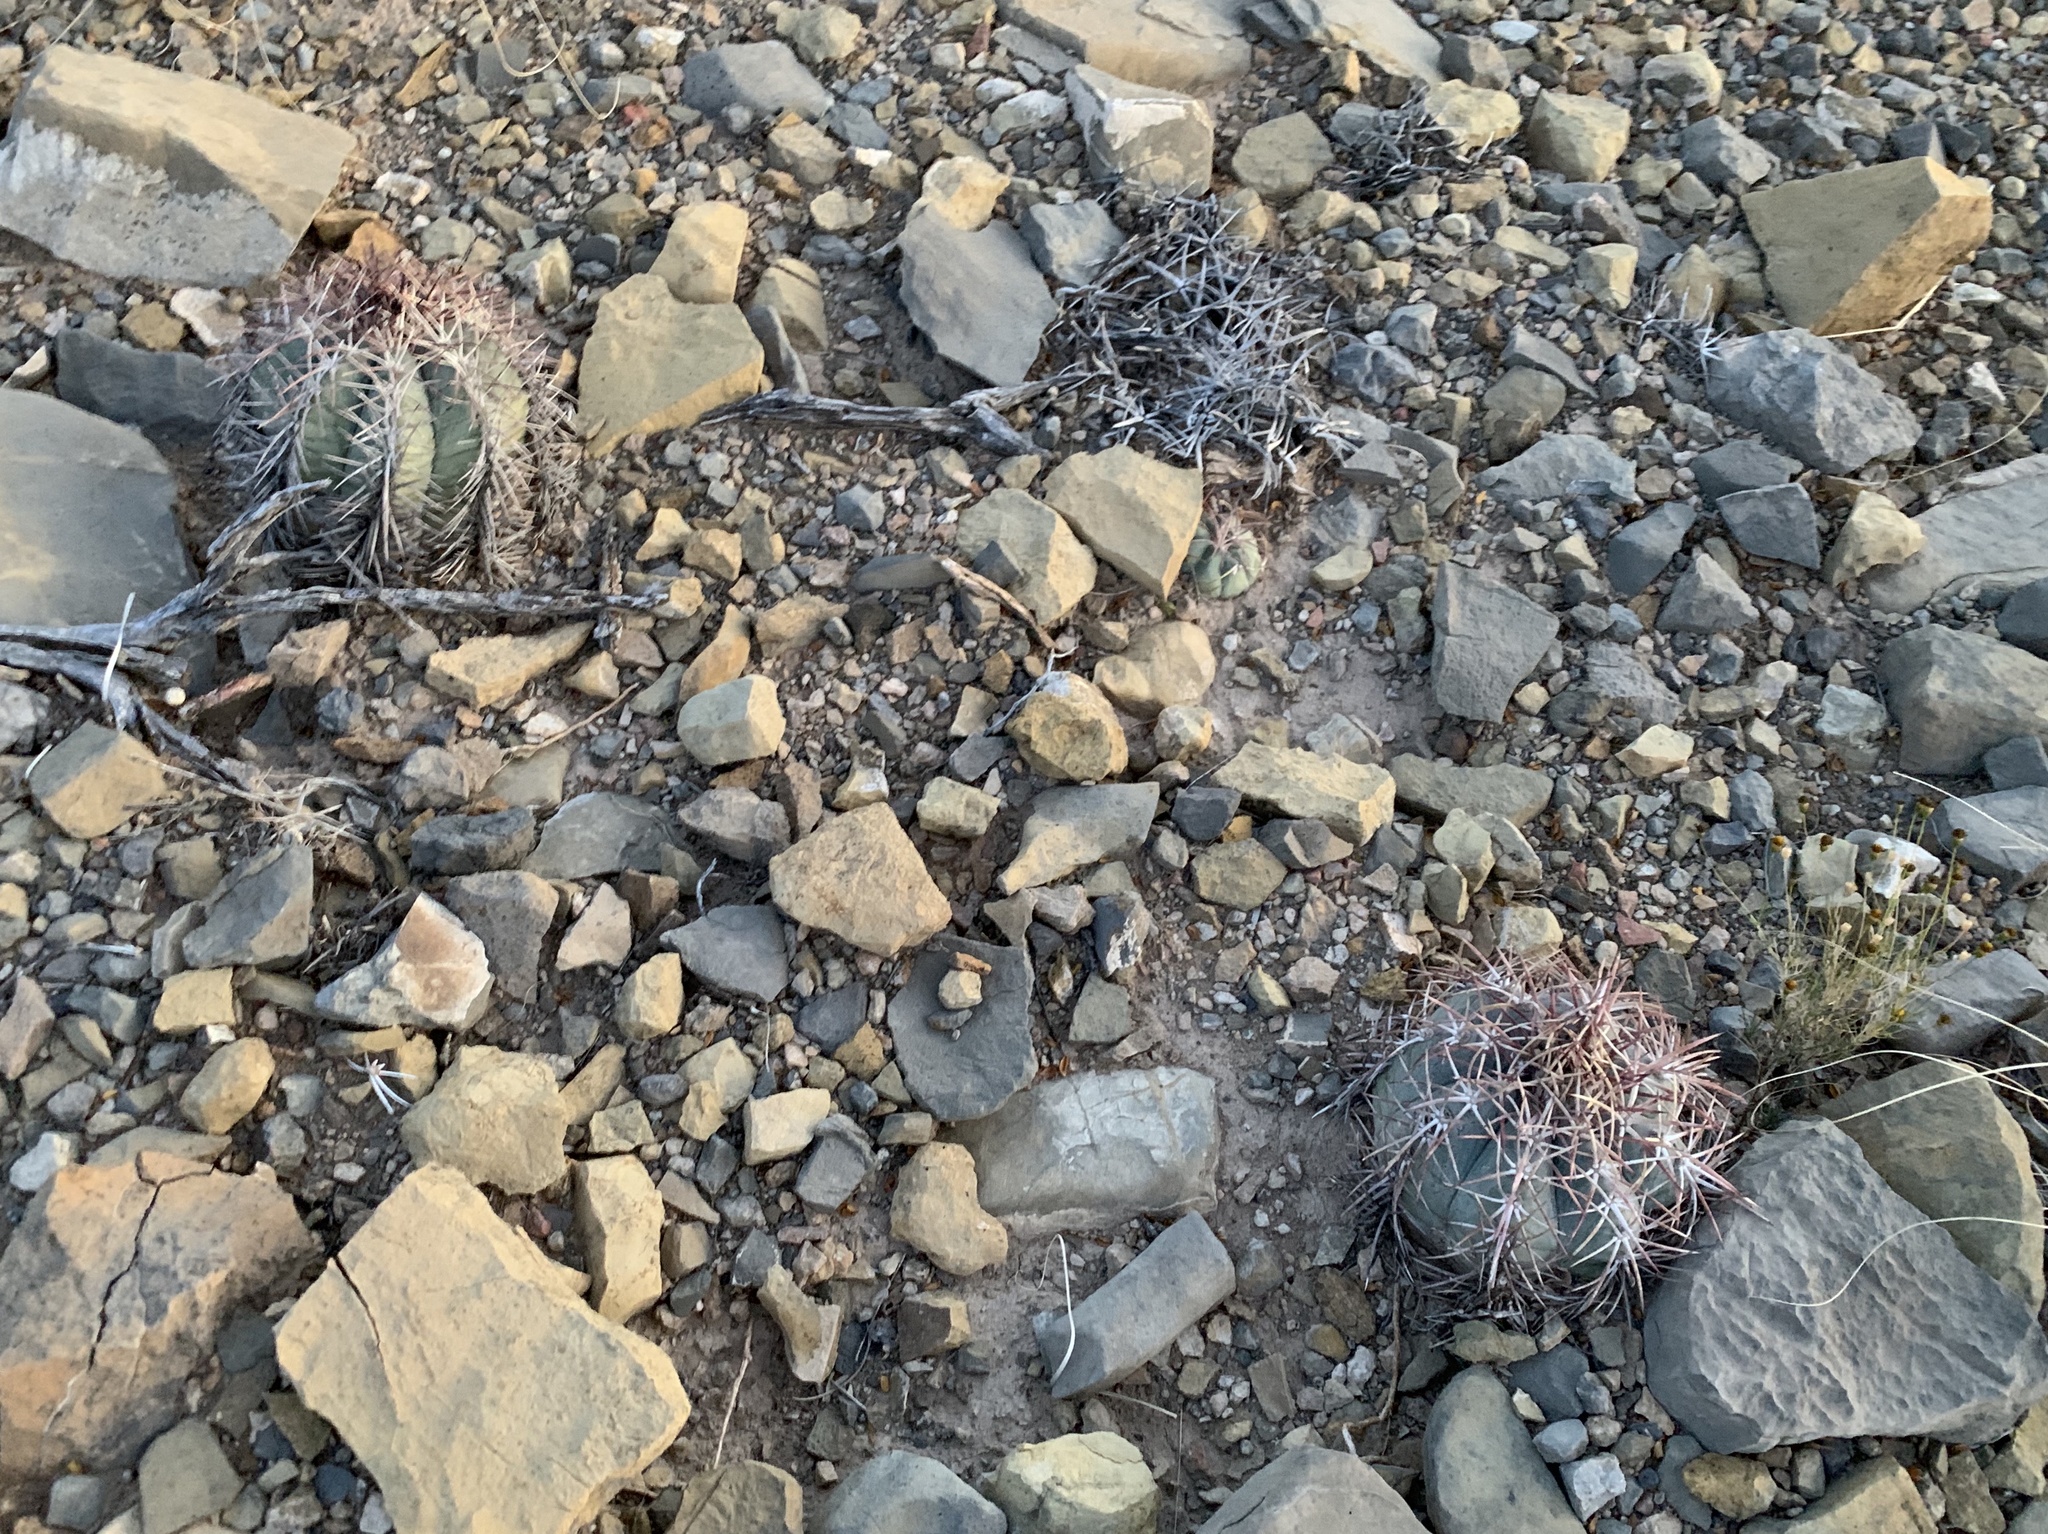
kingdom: Plantae
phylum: Tracheophyta
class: Magnoliopsida
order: Caryophyllales
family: Cactaceae
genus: Echinocactus
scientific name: Echinocactus horizonthalonius
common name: Devilshead
